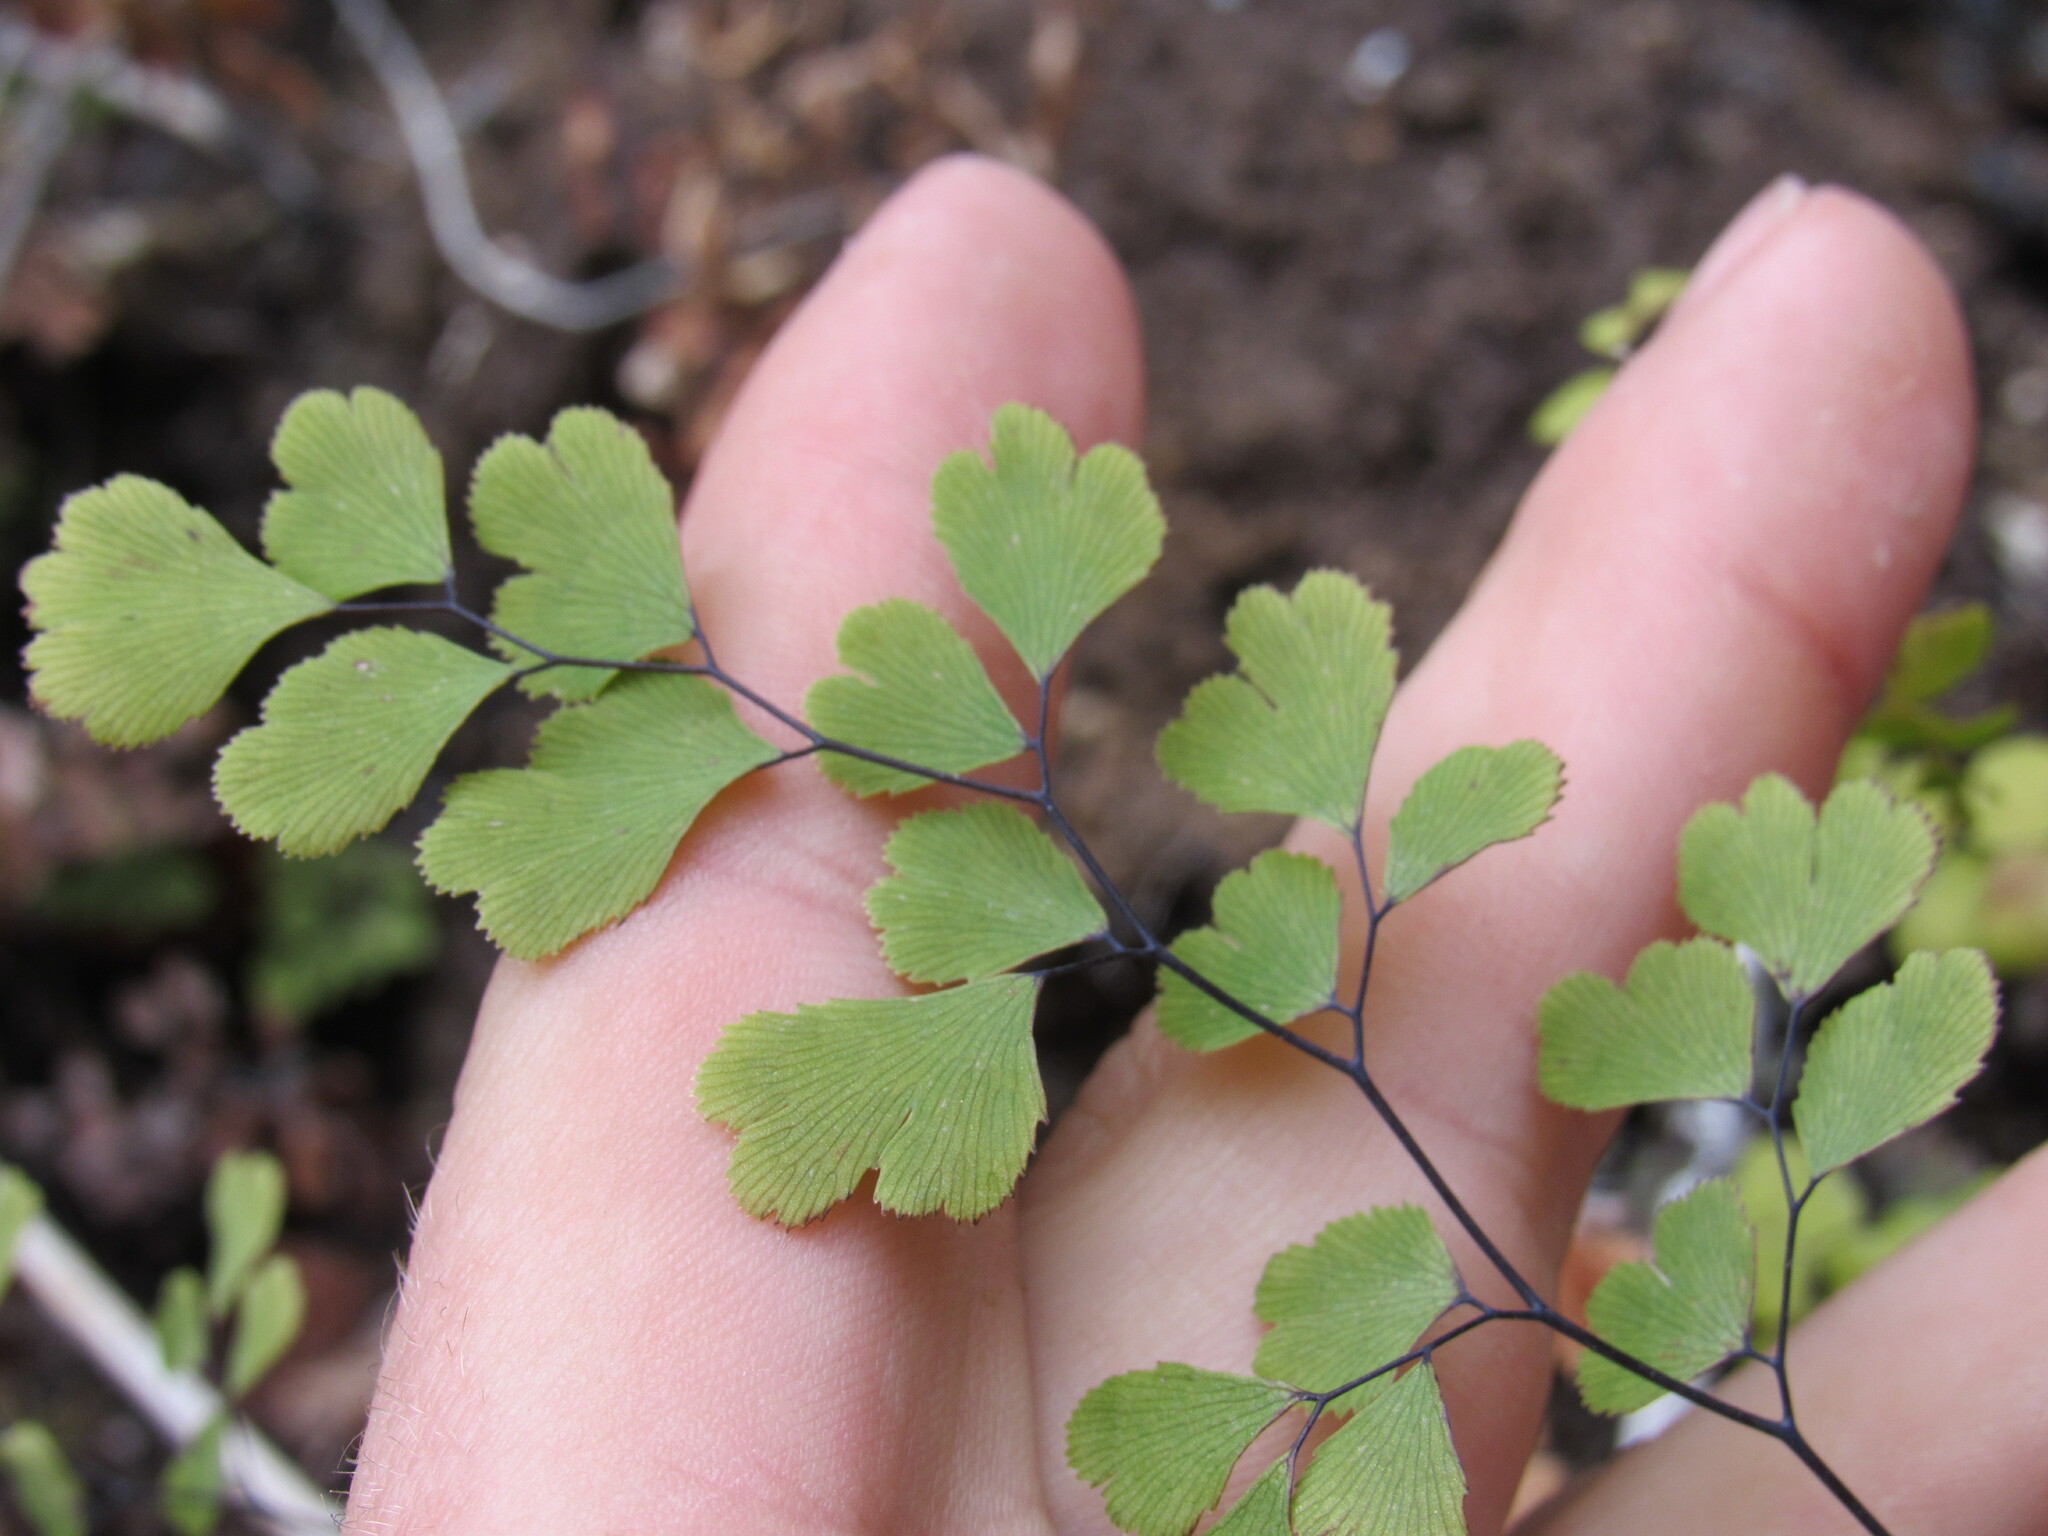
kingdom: Plantae
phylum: Tracheophyta
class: Polypodiopsida
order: Polypodiales
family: Pteridaceae
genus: Adiantum
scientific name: Adiantum capillus-veneris
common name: Maidenhair fern
